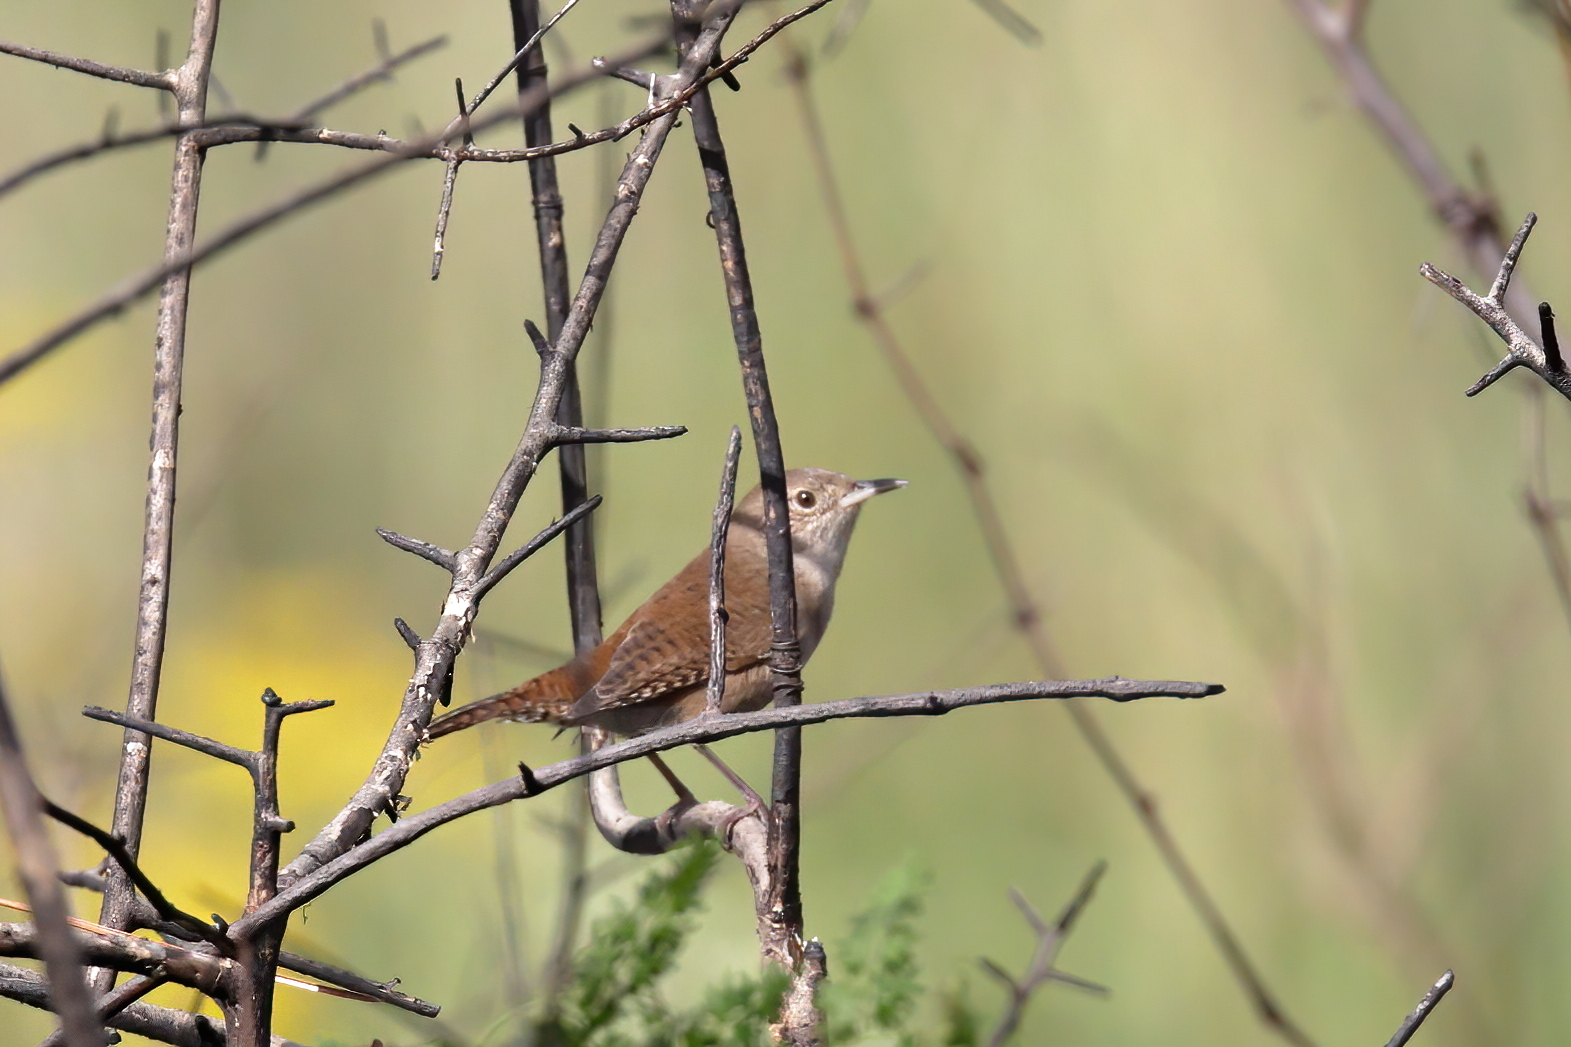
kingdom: Animalia
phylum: Chordata
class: Aves
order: Passeriformes
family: Troglodytidae
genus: Troglodytes
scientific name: Troglodytes aedon
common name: House wren
